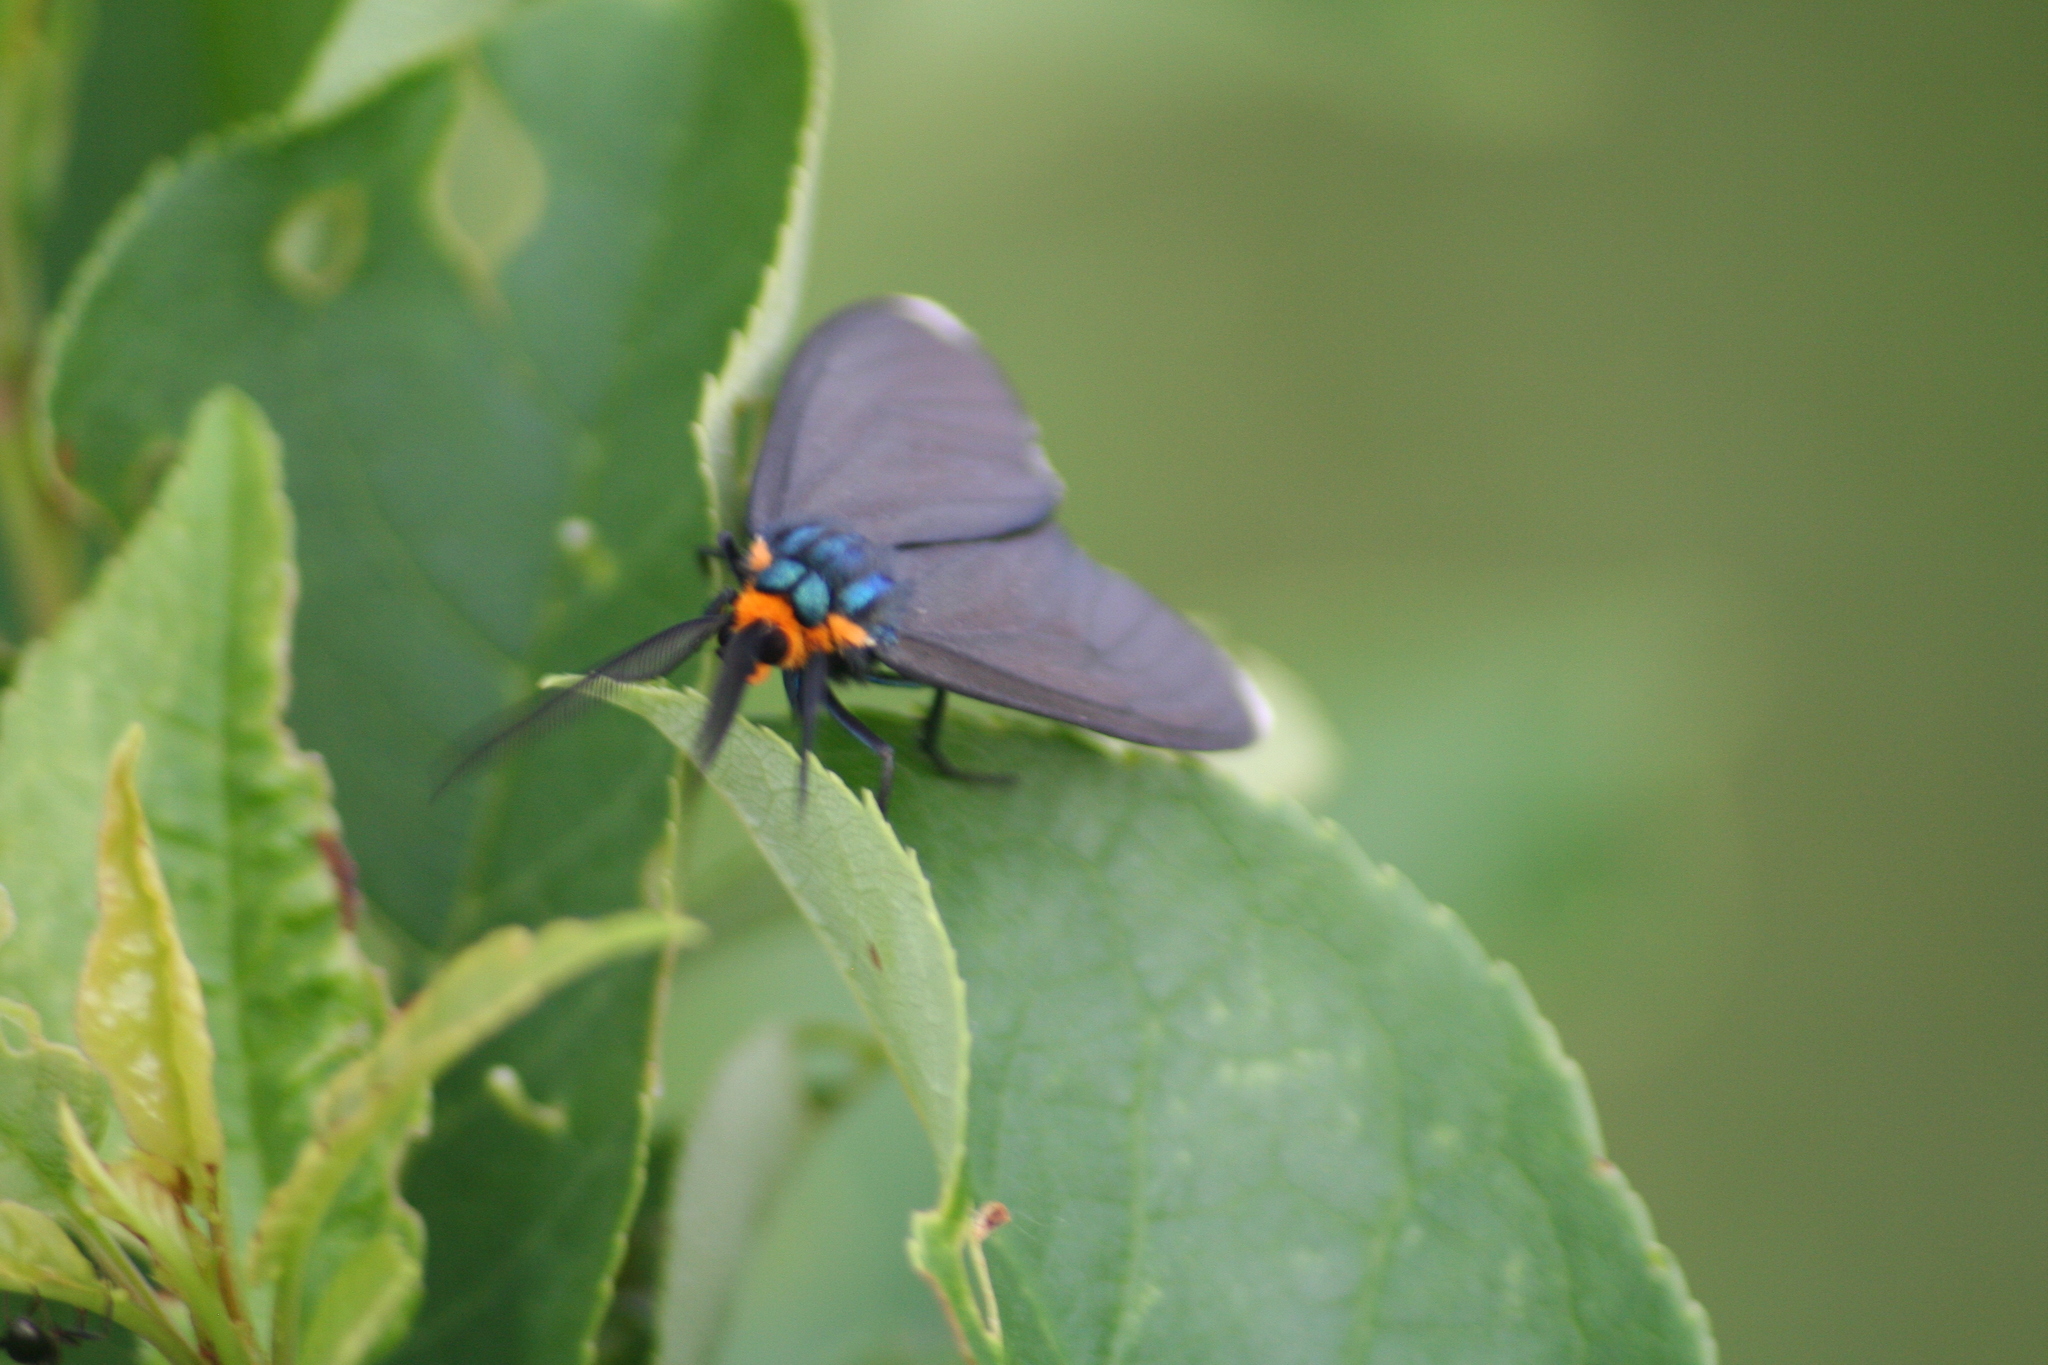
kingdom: Animalia
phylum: Arthropoda
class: Insecta
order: Lepidoptera
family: Erebidae
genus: Ctenucha
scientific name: Ctenucha virginica
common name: Virginia ctenucha moth
